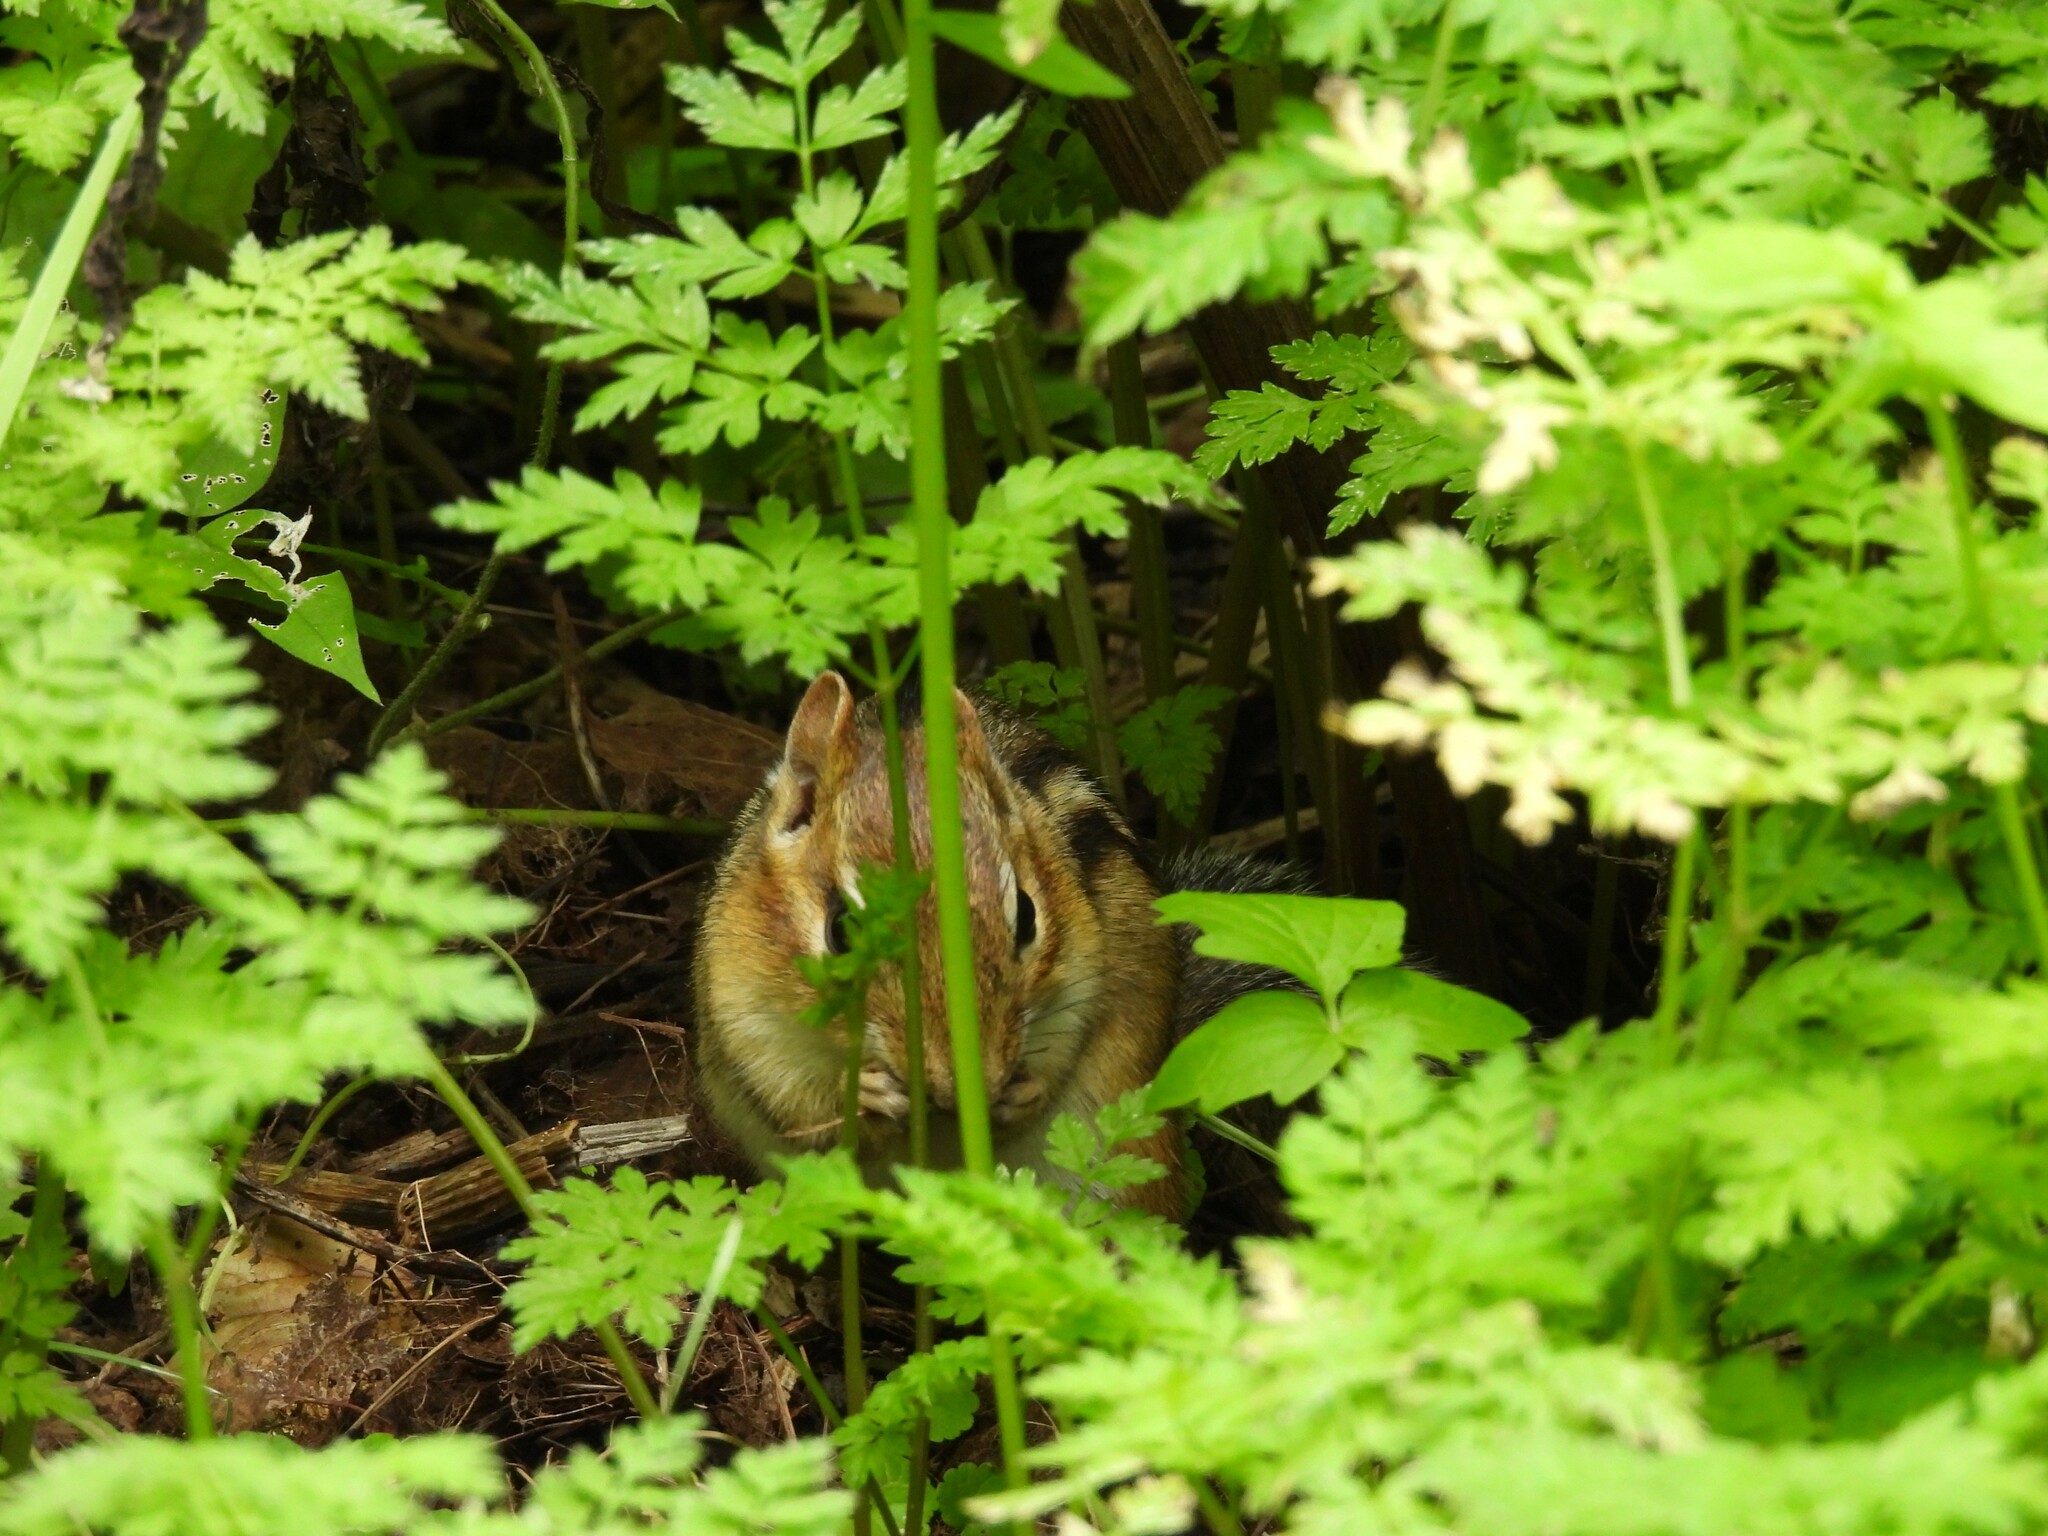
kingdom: Animalia
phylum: Chordata
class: Mammalia
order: Rodentia
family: Sciuridae
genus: Tamias
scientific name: Tamias striatus
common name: Eastern chipmunk
